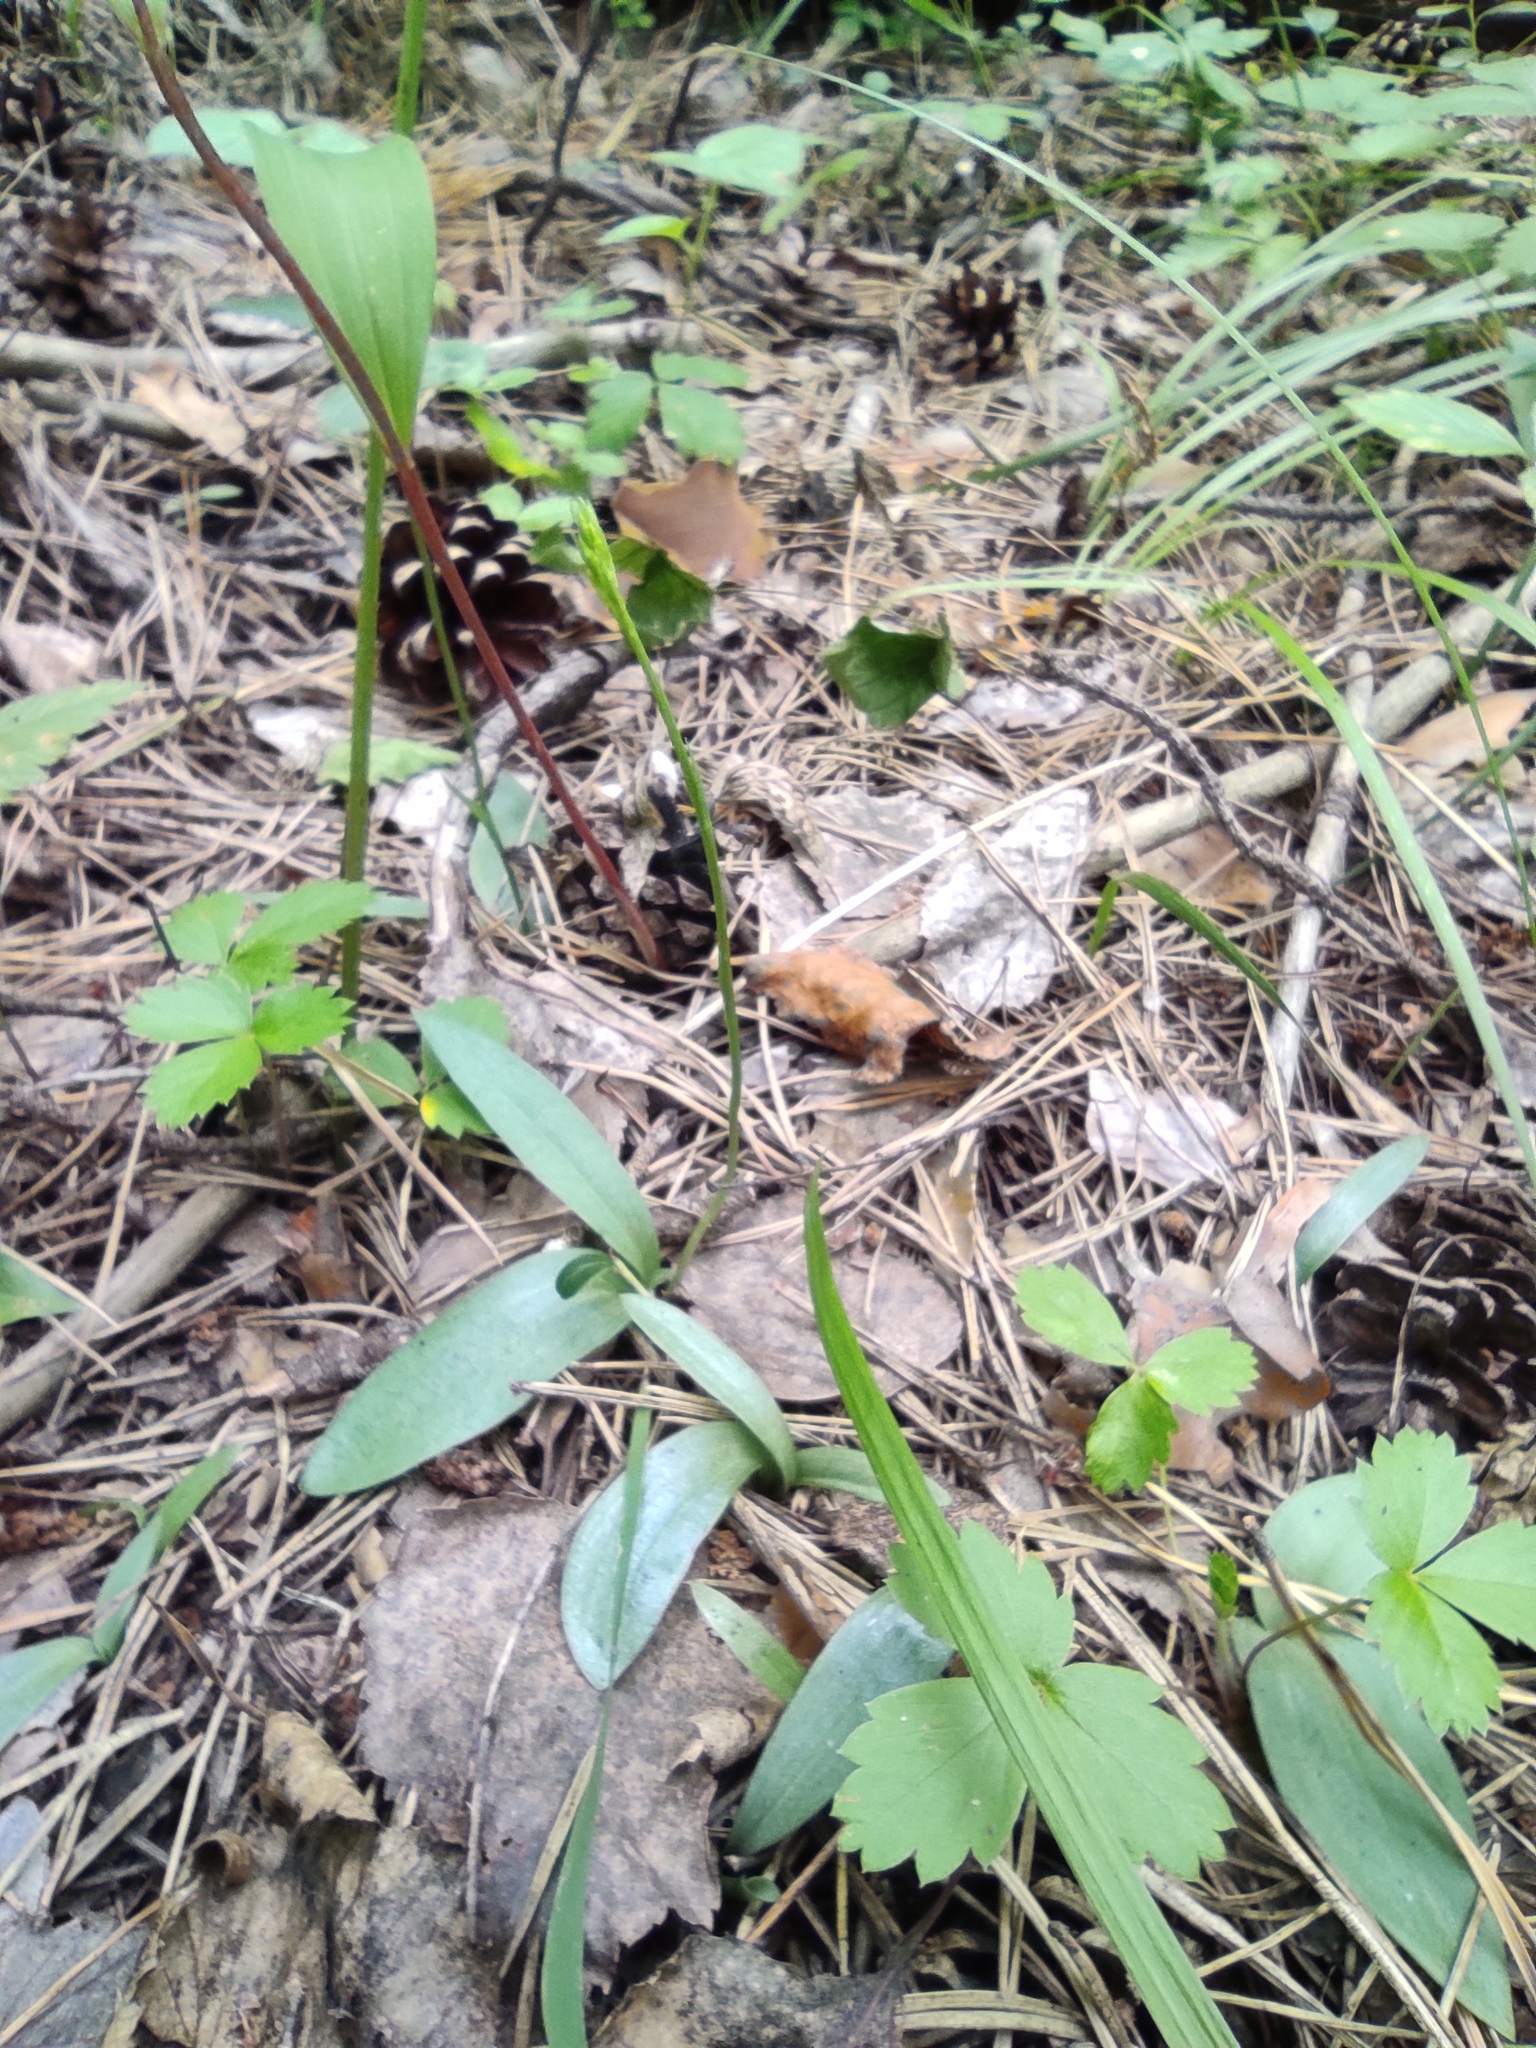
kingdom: Plantae
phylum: Tracheophyta
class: Liliopsida
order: Asparagales
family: Orchidaceae
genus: Hemipilia
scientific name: Hemipilia cucullata
